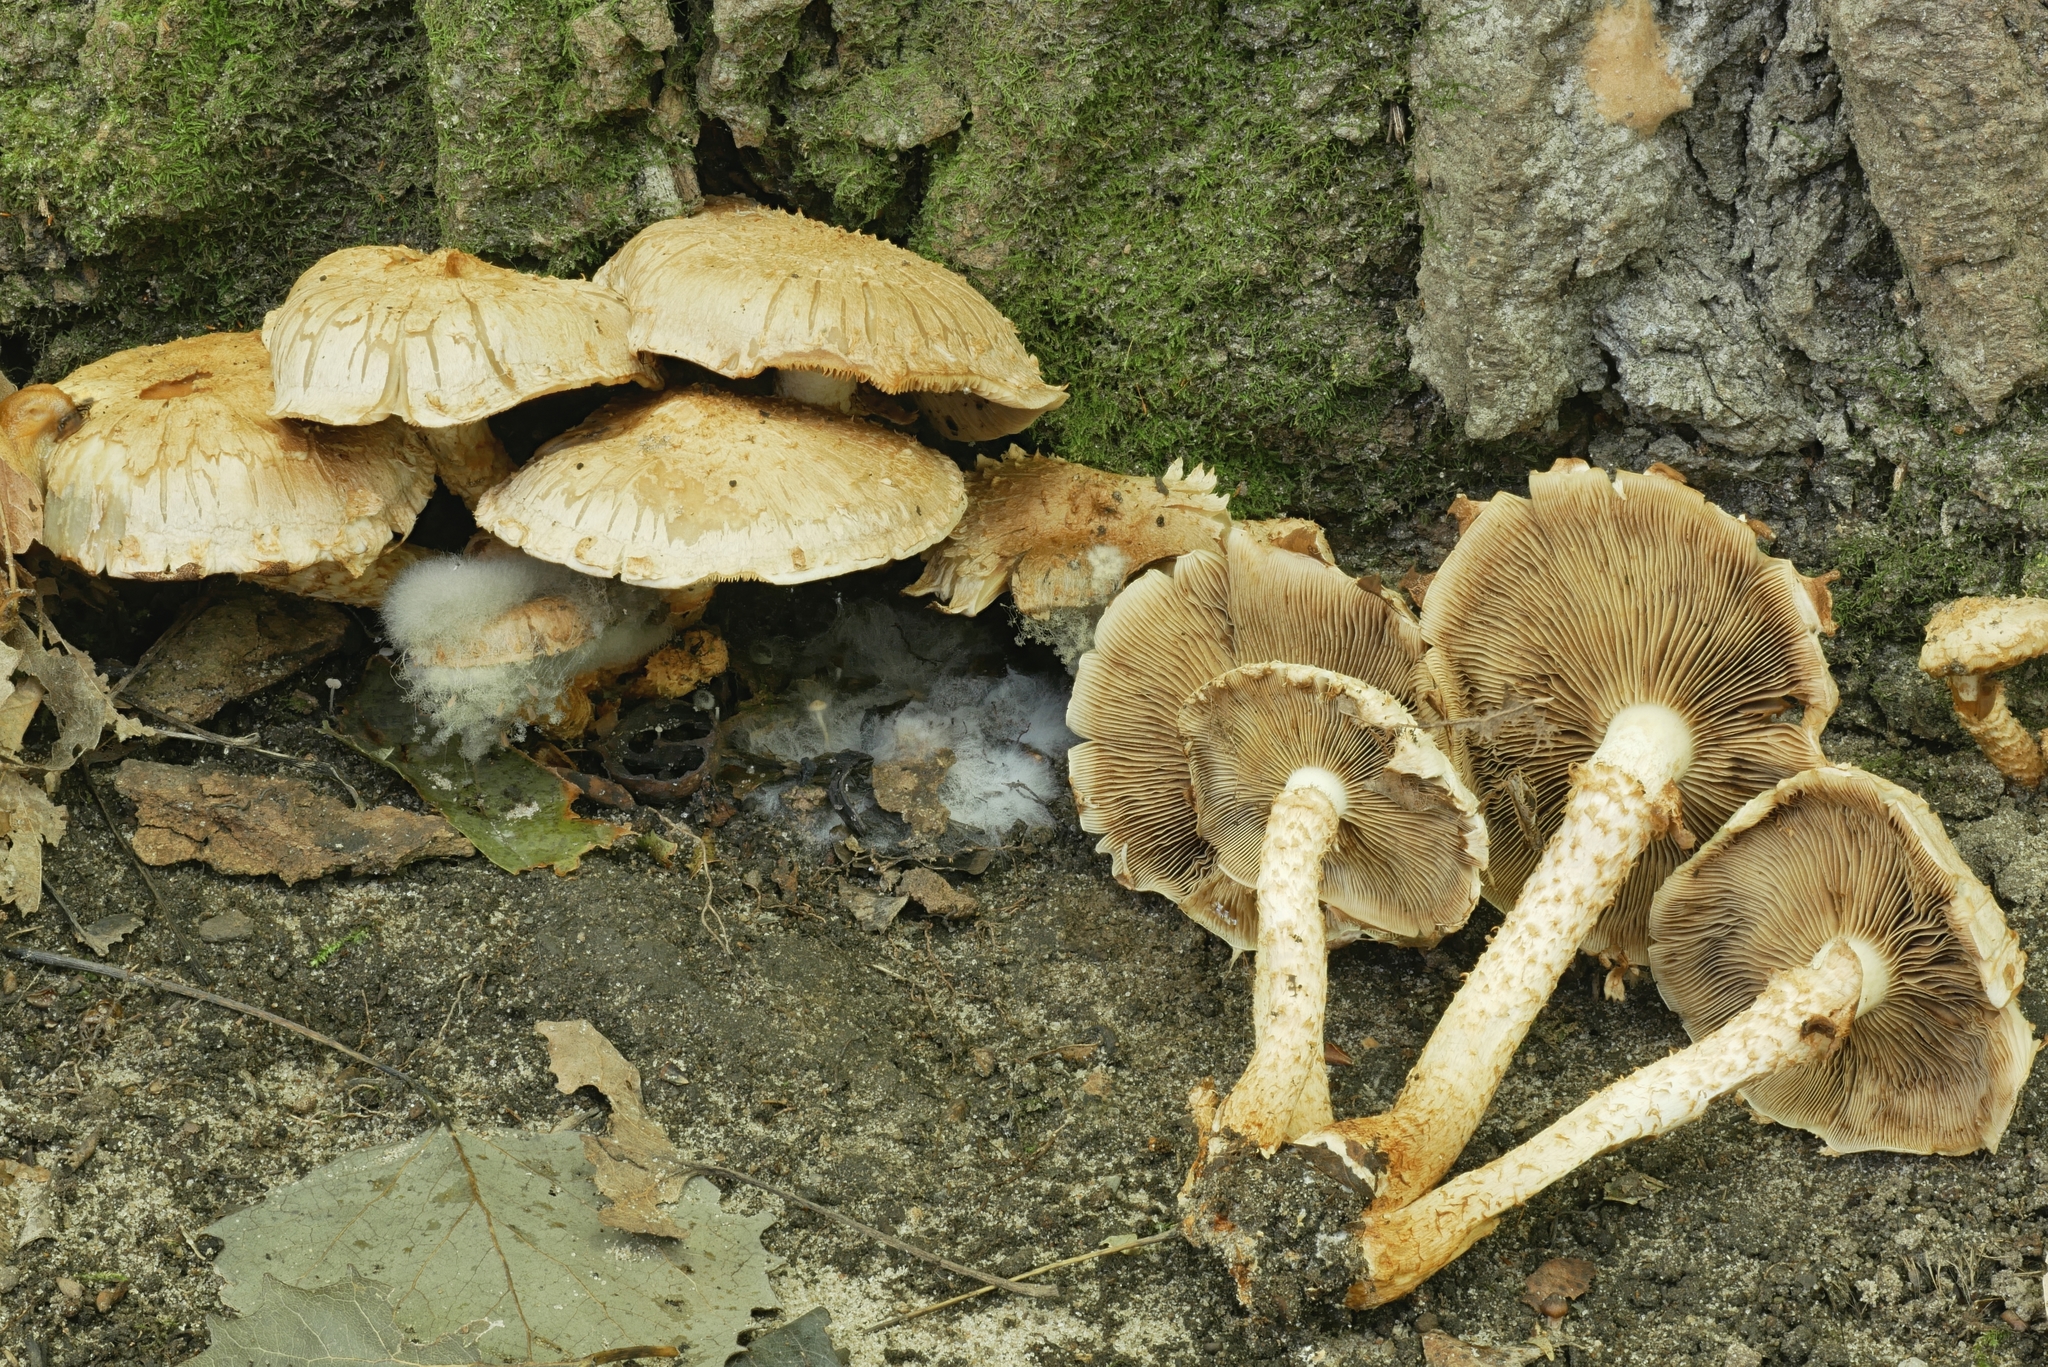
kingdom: Fungi
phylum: Basidiomycota
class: Agaricomycetes
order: Agaricales
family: Strophariaceae
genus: Pholiota
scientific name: Pholiota squarrosa
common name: Shaggy pholiota
